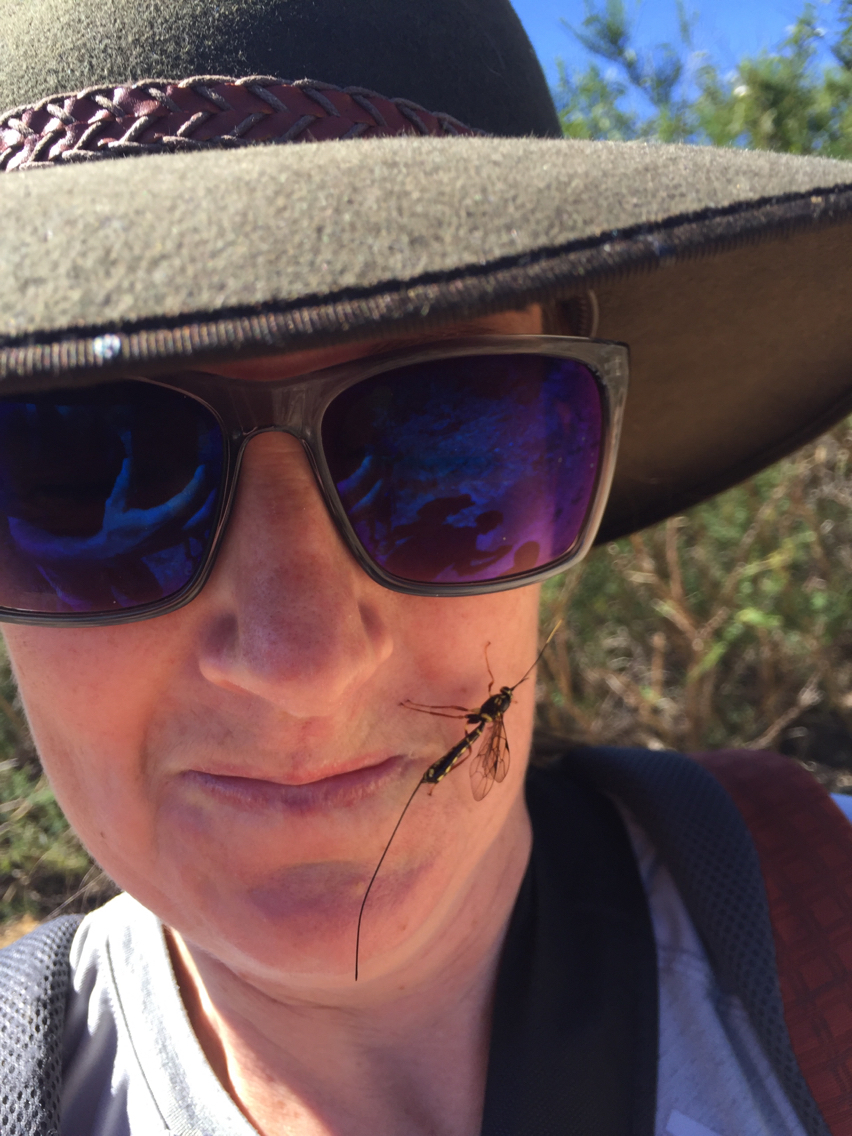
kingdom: Animalia
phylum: Arthropoda
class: Insecta
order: Hymenoptera
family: Ichneumonidae
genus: Certonotus
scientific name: Certonotus fractinervis
